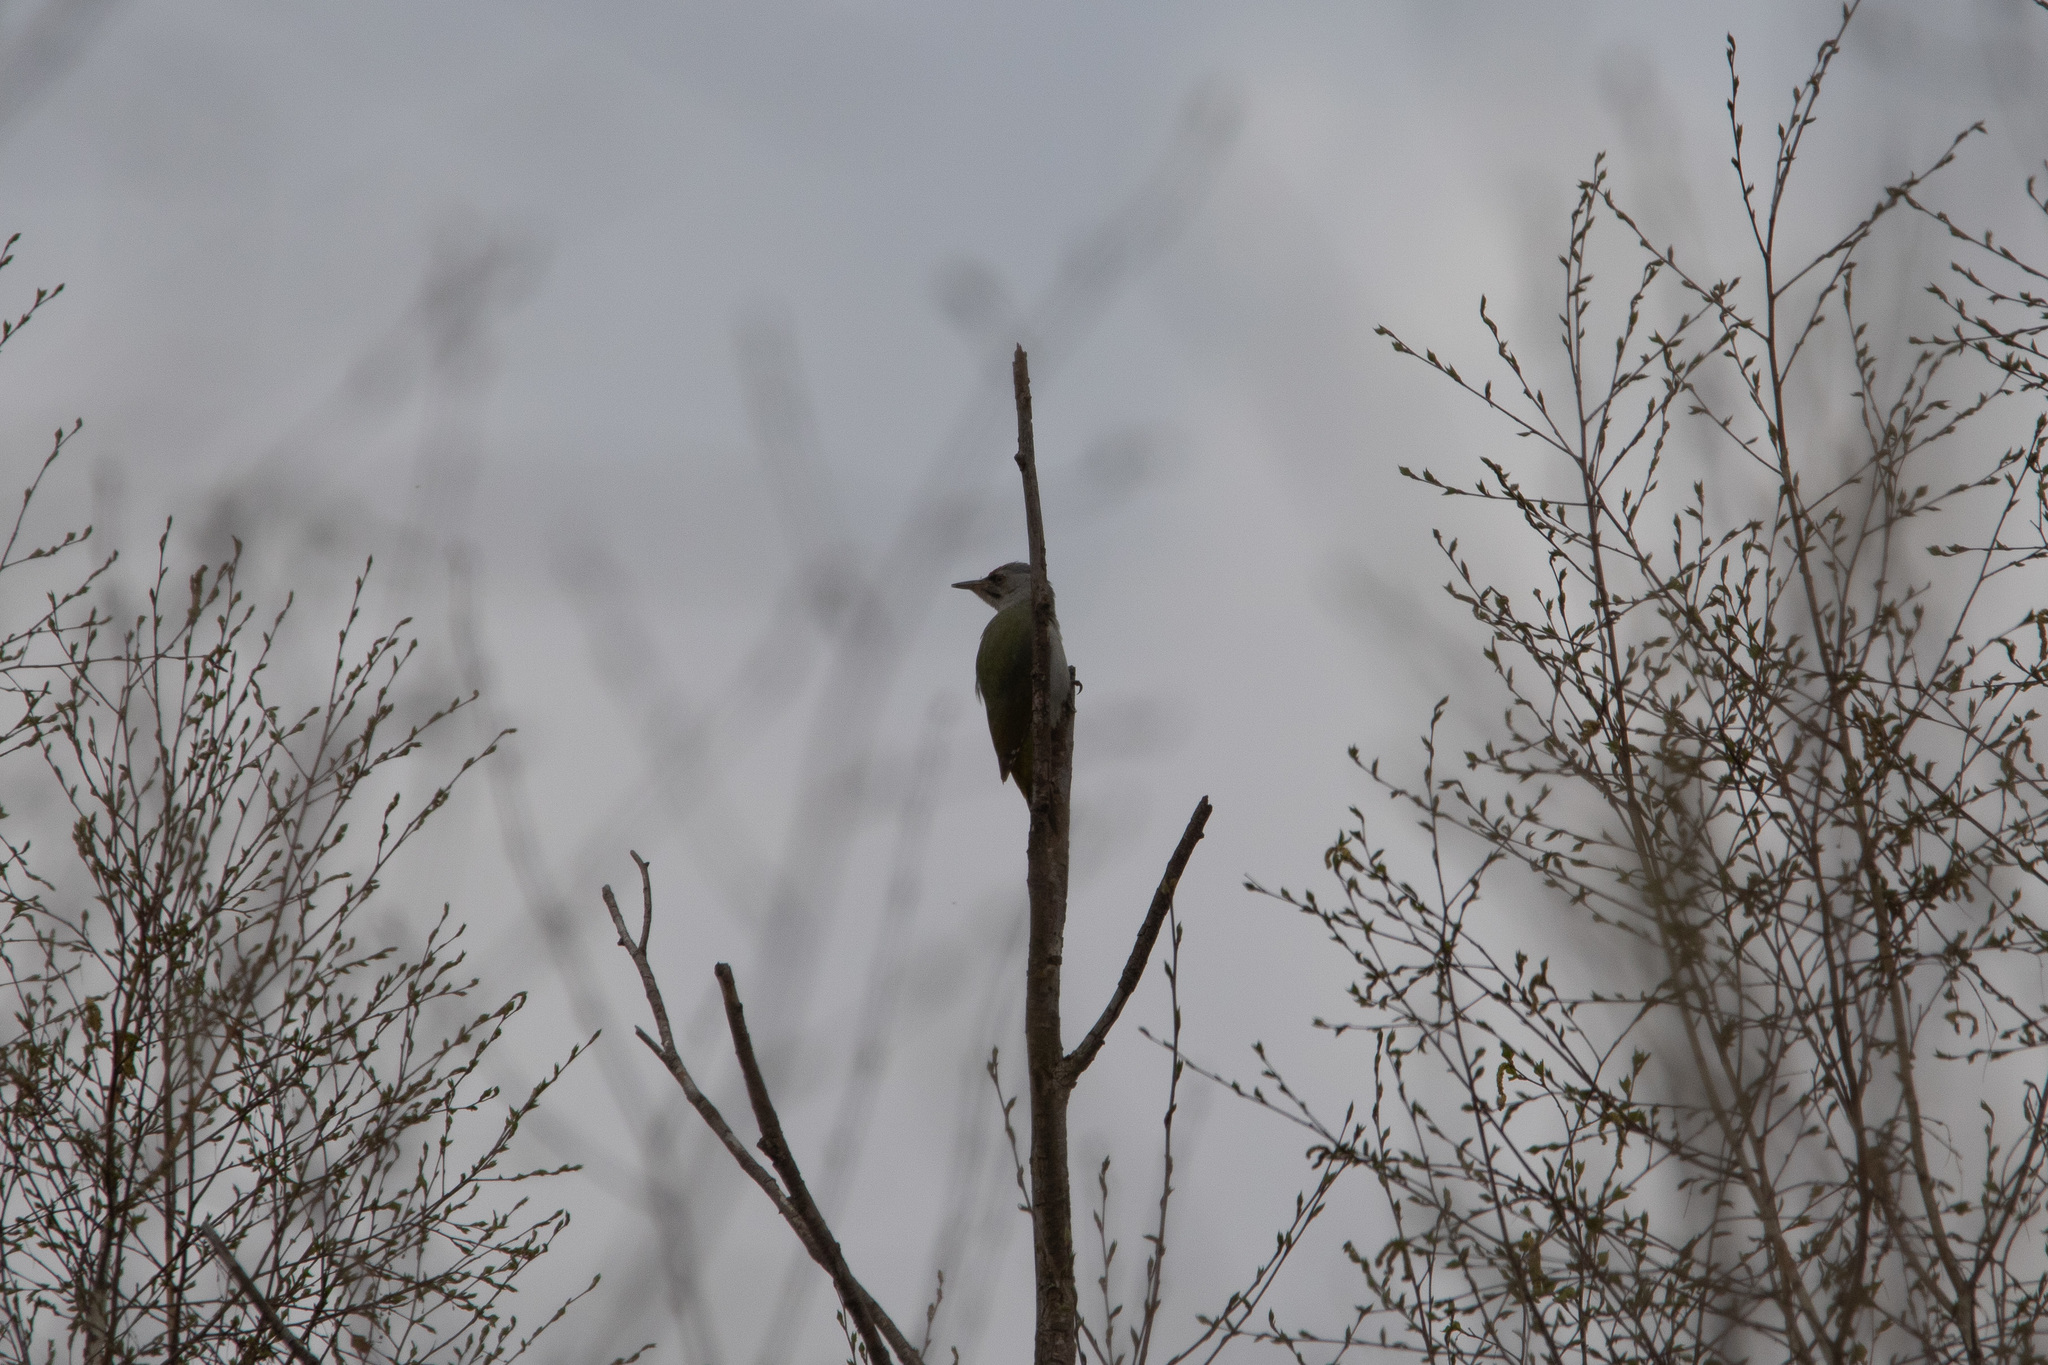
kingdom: Animalia
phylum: Chordata
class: Aves
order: Piciformes
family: Picidae
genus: Picus
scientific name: Picus canus
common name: Grey-headed woodpecker
